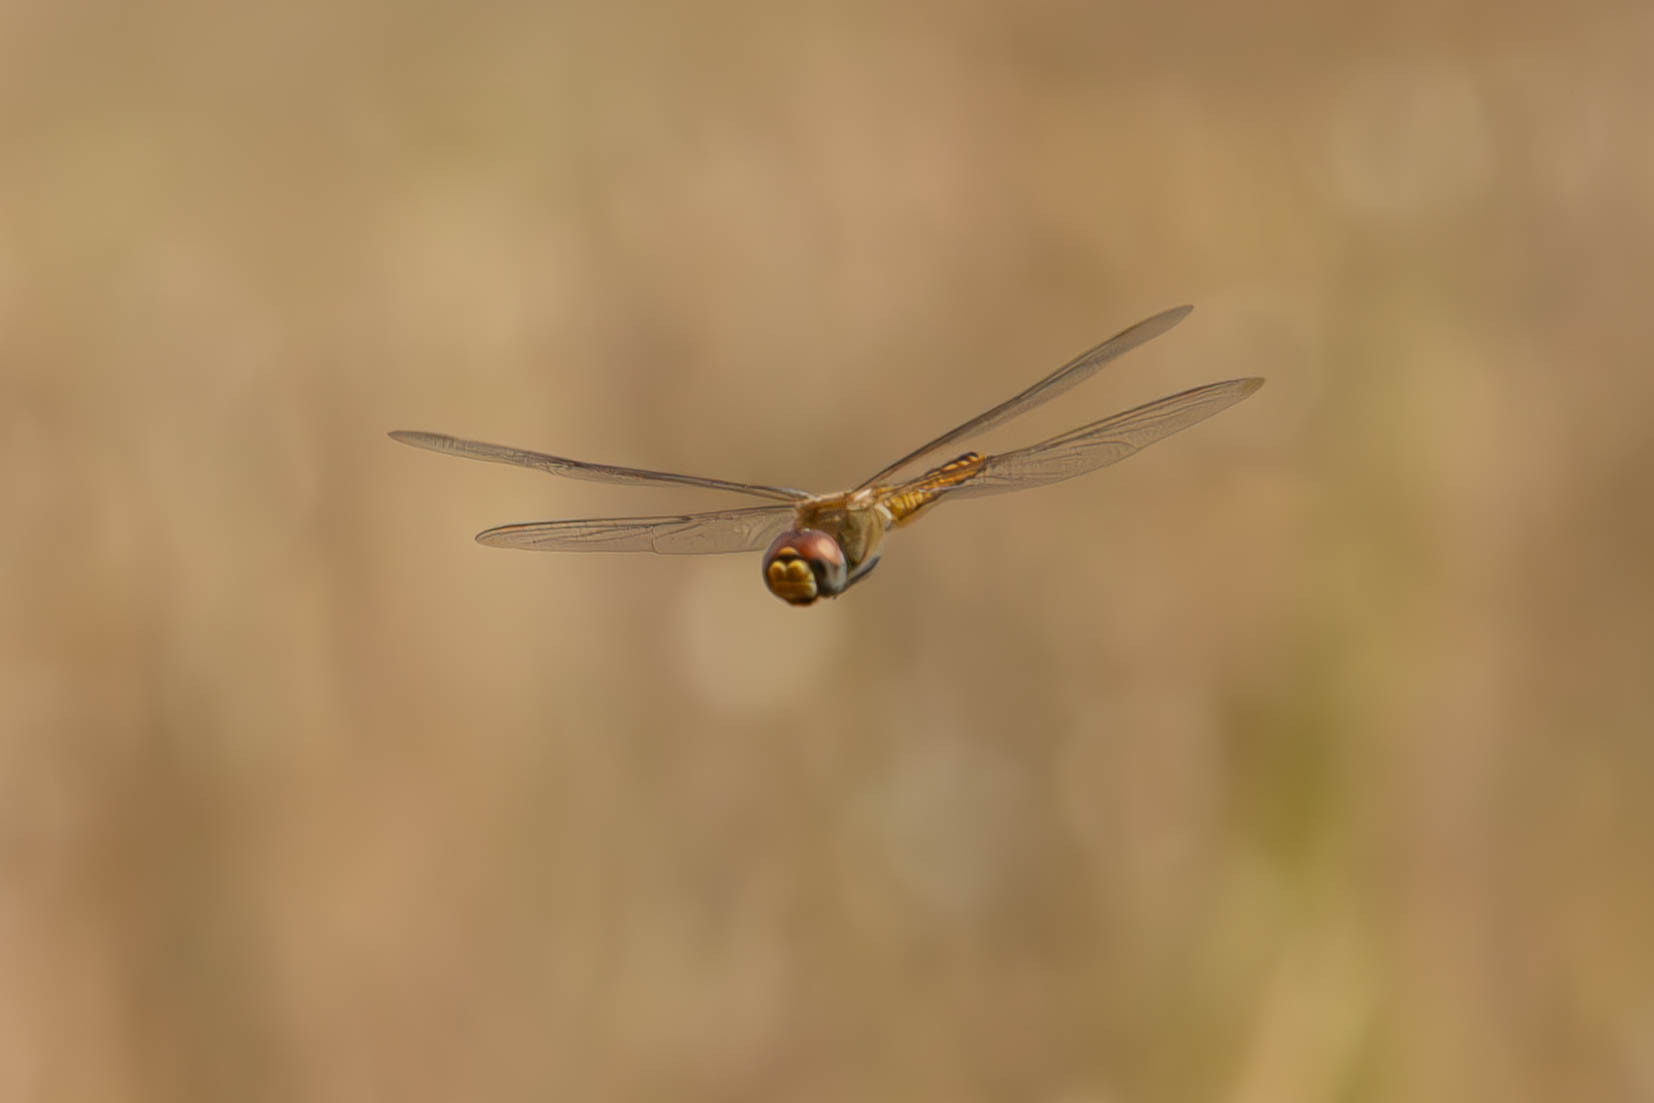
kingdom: Animalia
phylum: Arthropoda
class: Insecta
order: Odonata
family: Libellulidae
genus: Pantala
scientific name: Pantala flavescens
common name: Wandering glider
